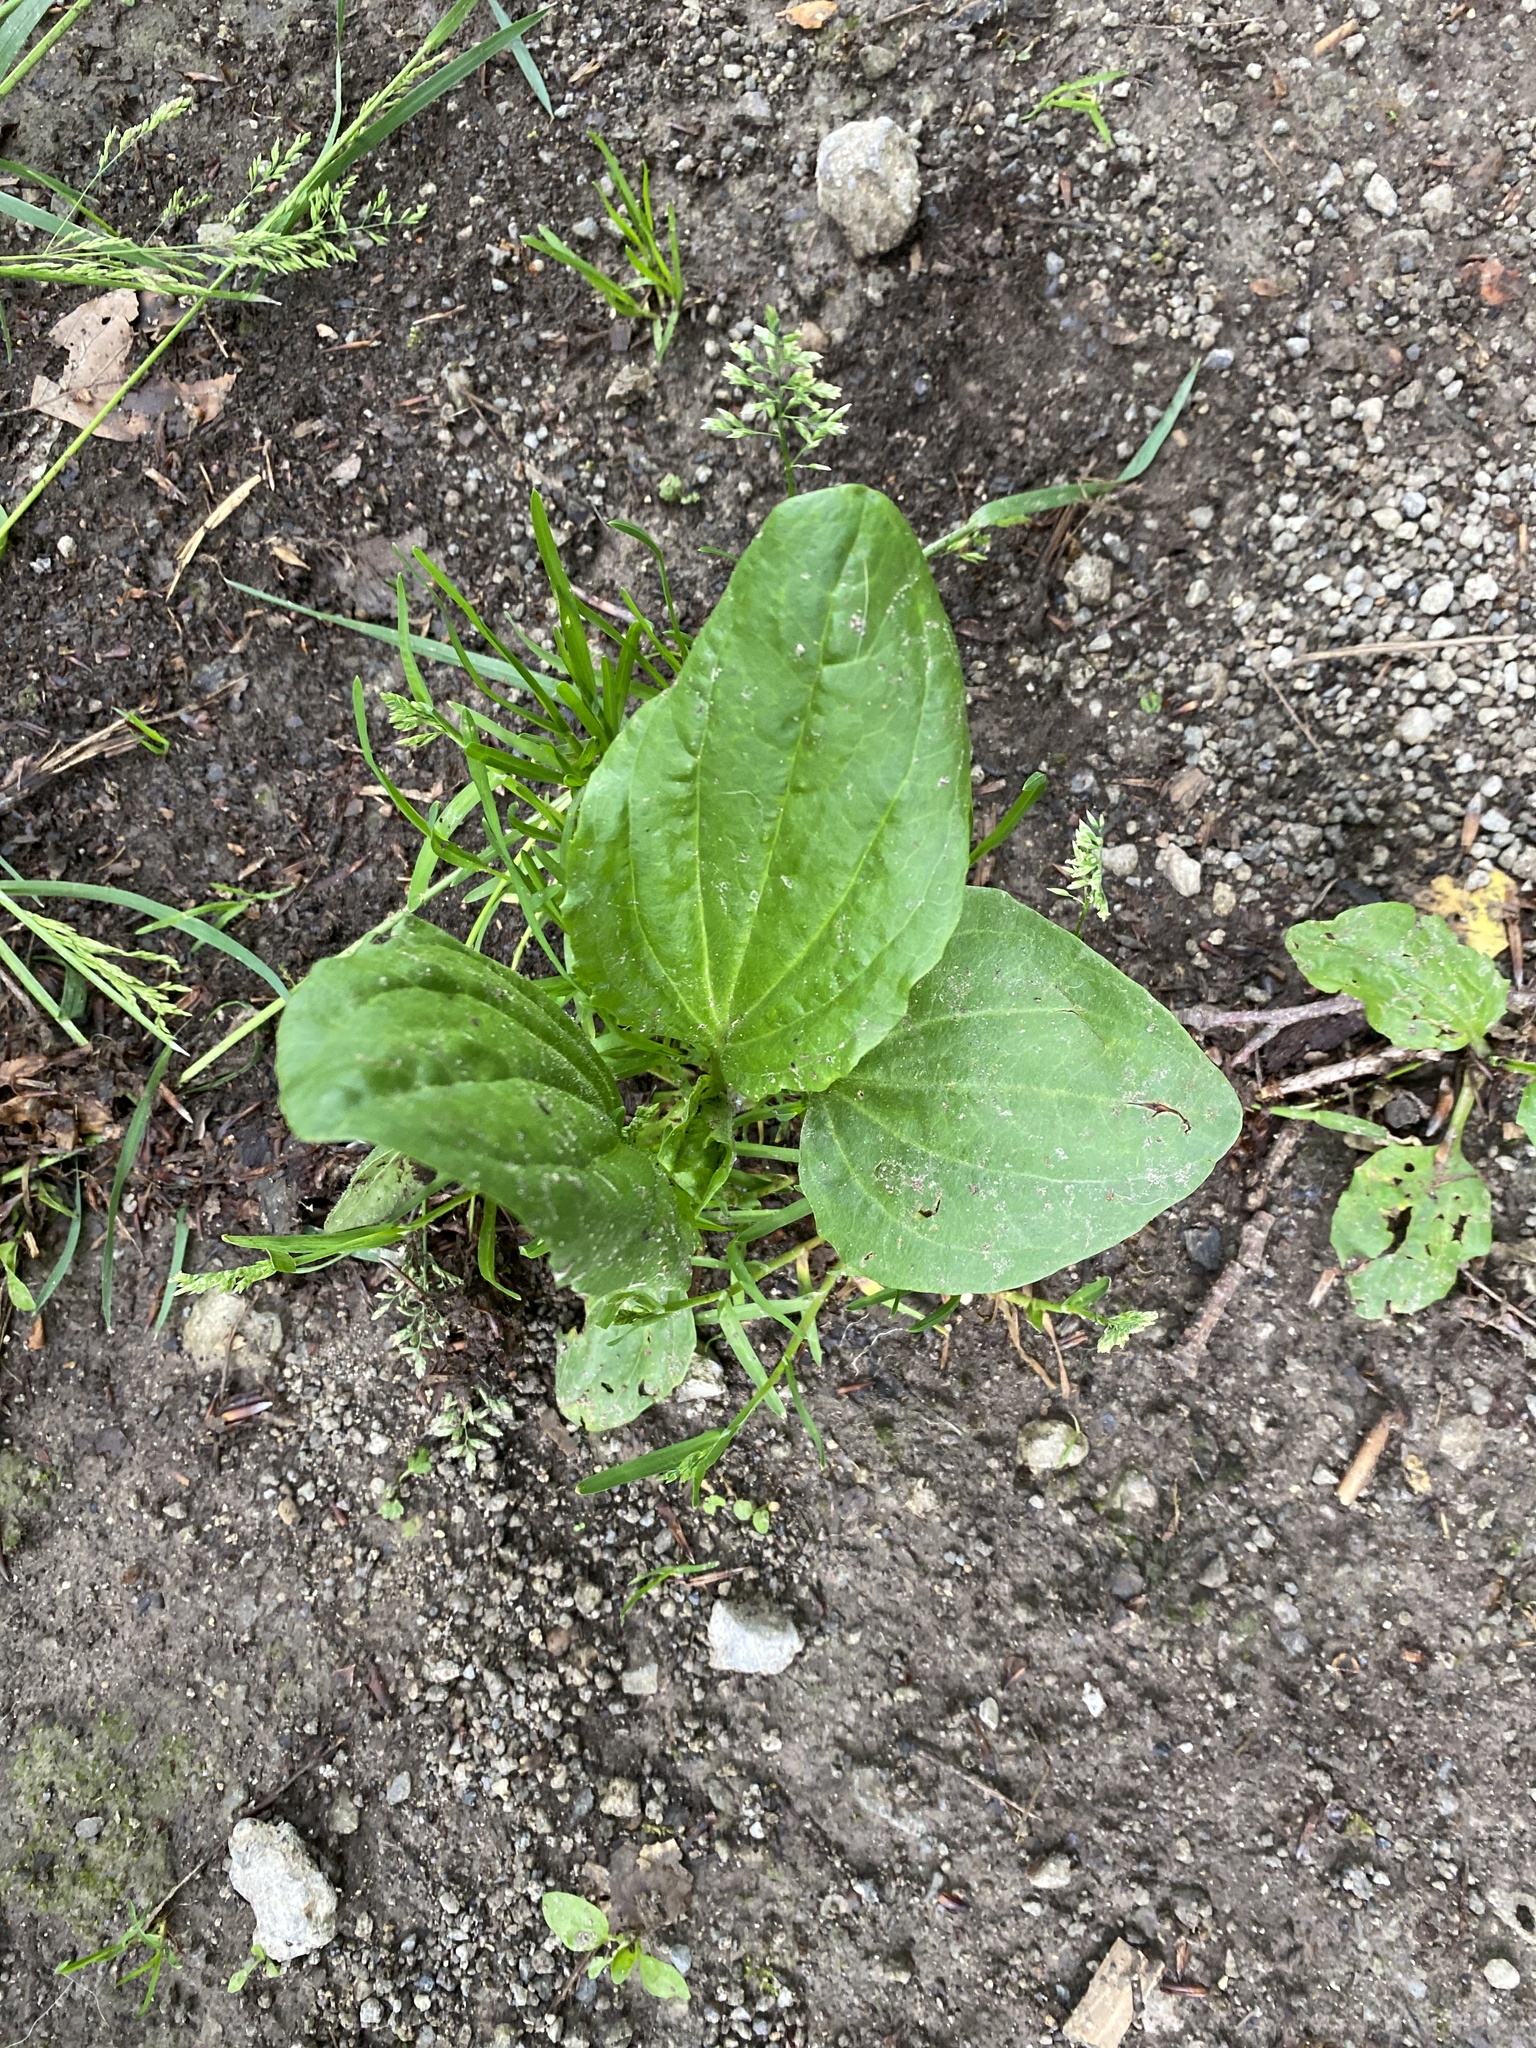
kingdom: Plantae
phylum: Tracheophyta
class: Magnoliopsida
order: Lamiales
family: Plantaginaceae
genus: Plantago
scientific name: Plantago major
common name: Common plantain
